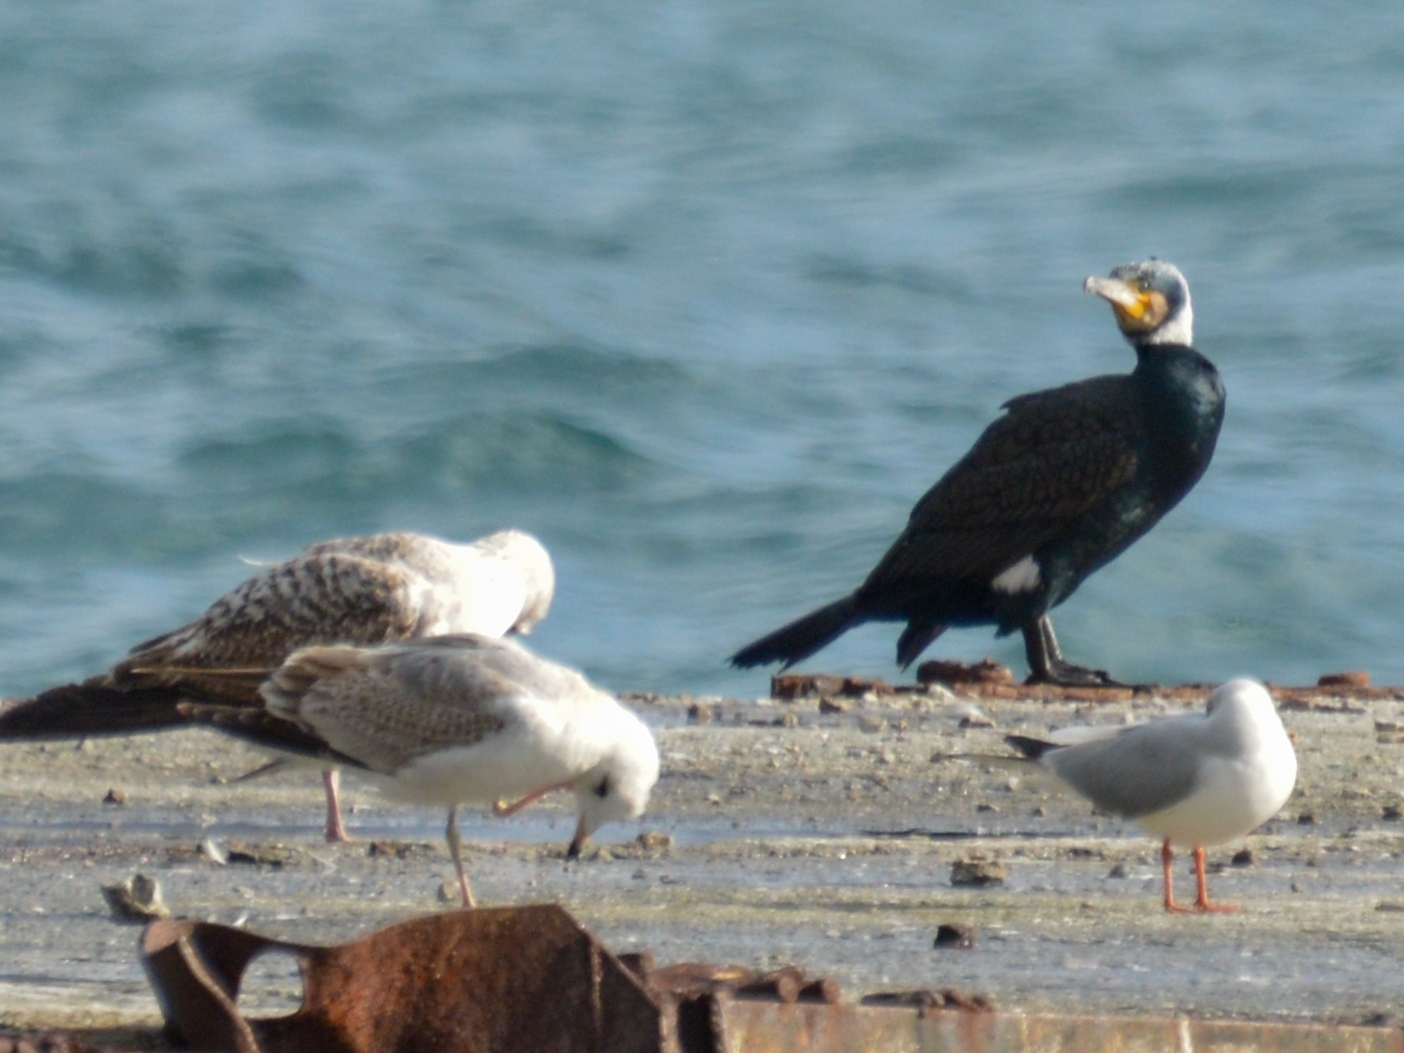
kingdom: Animalia
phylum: Chordata
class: Aves
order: Suliformes
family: Phalacrocoracidae
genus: Phalacrocorax
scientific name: Phalacrocorax carbo
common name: Great cormorant
